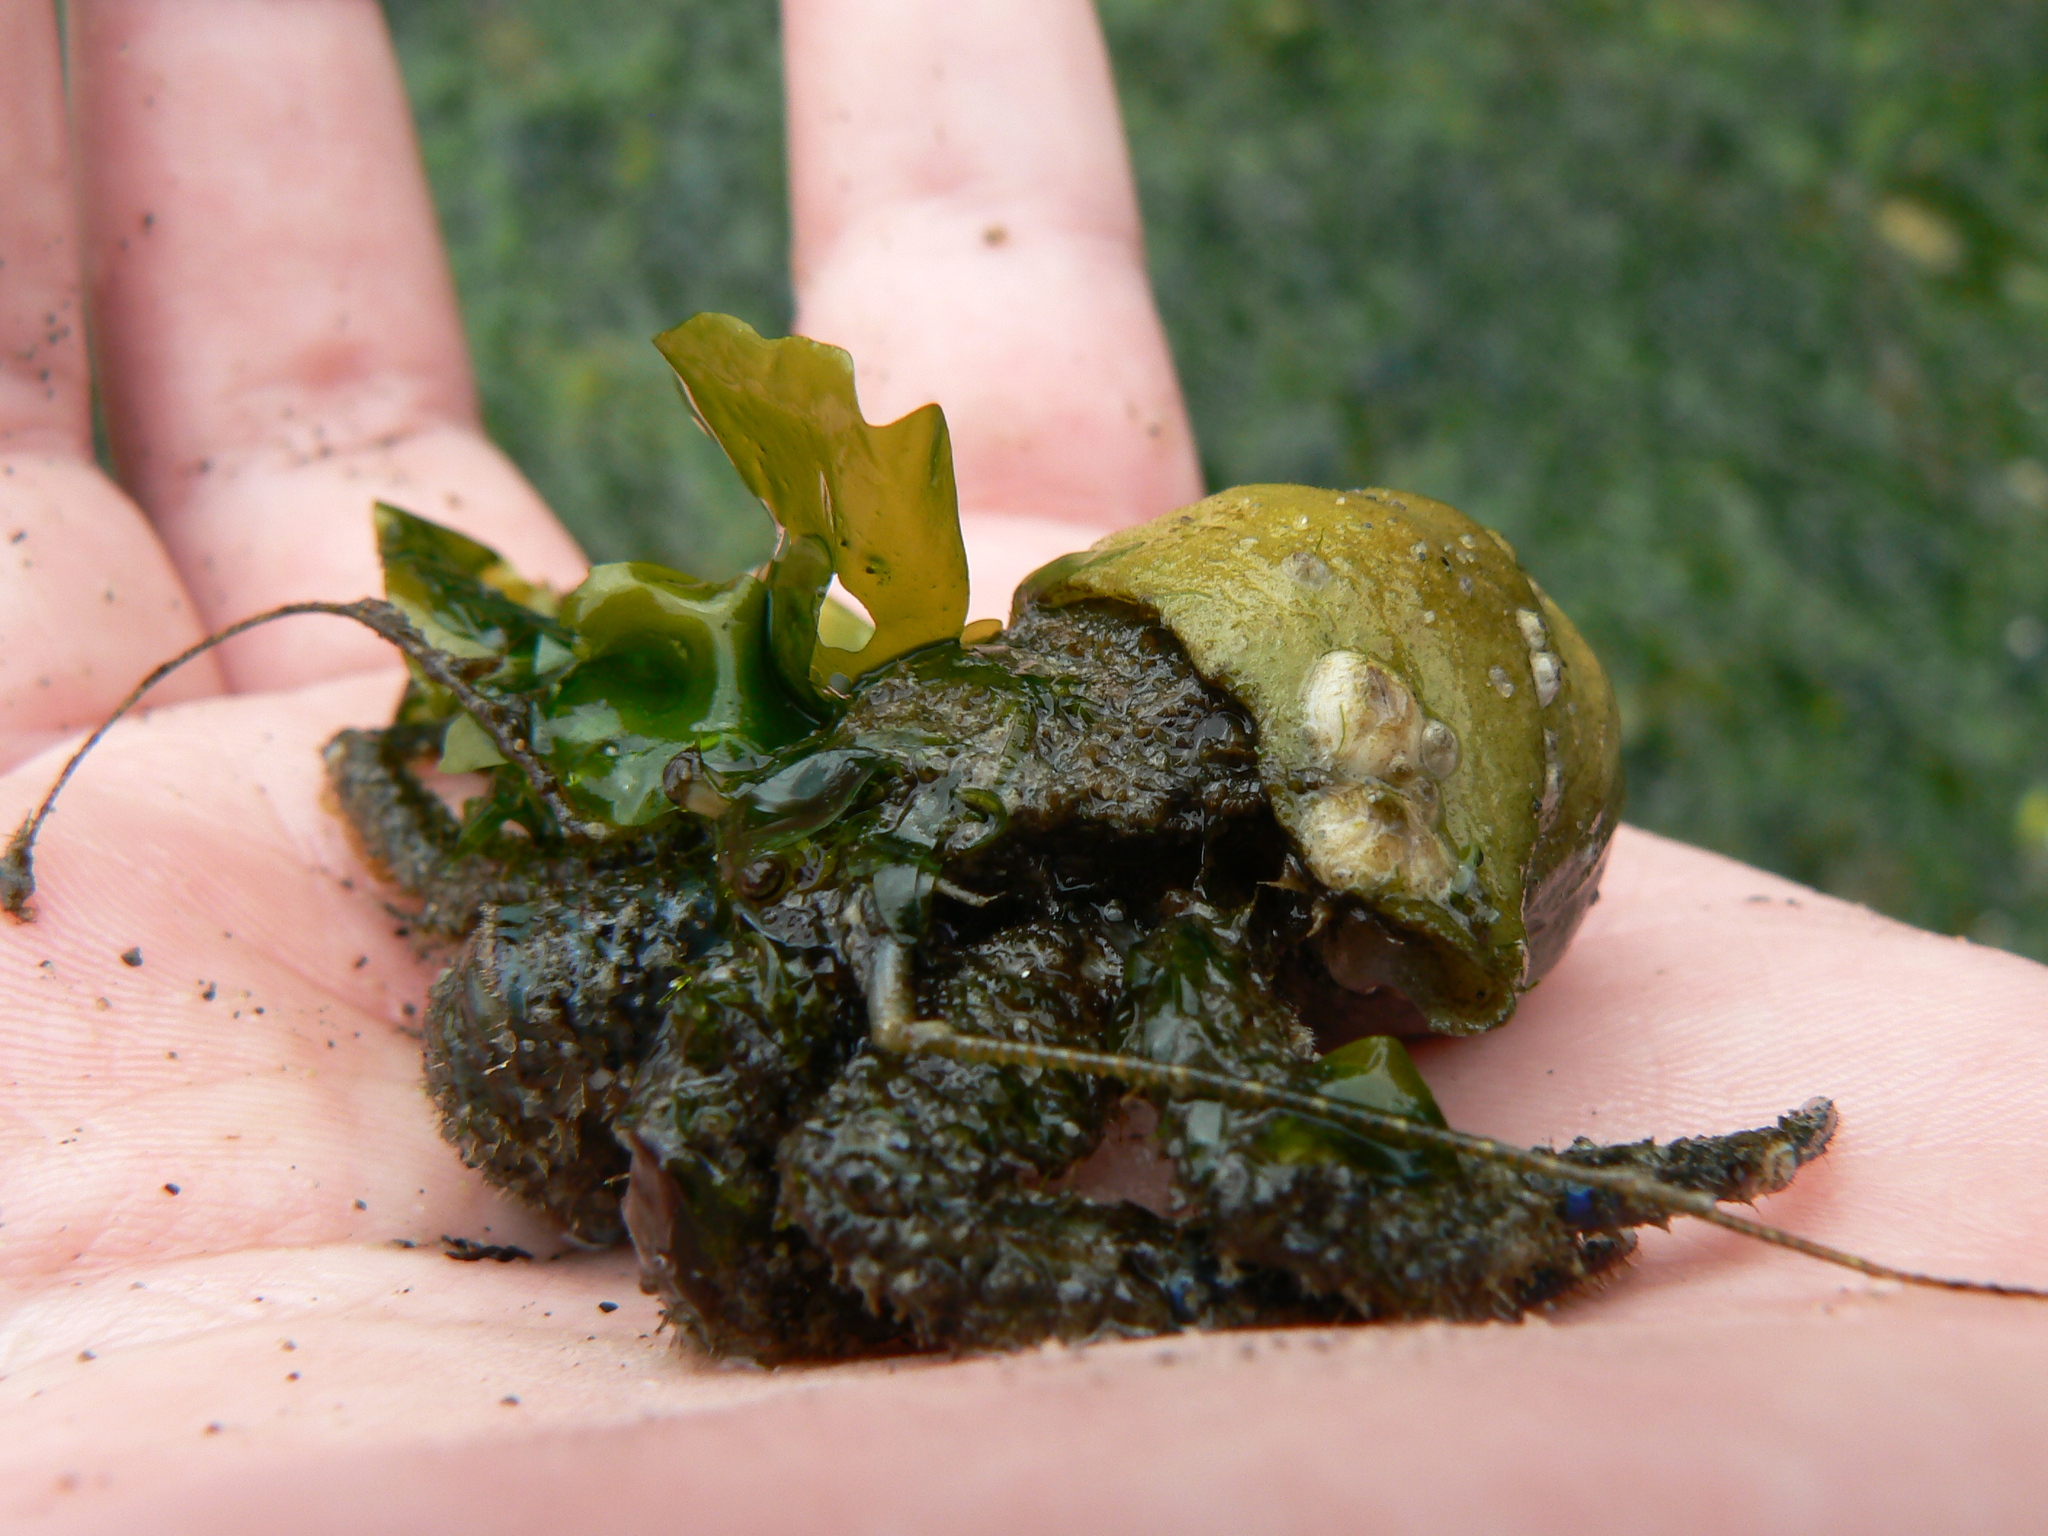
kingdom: Animalia
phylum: Arthropoda
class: Malacostraca
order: Decapoda
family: Paguridae
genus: Pagurus
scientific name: Pagurus hirsutiusculus
